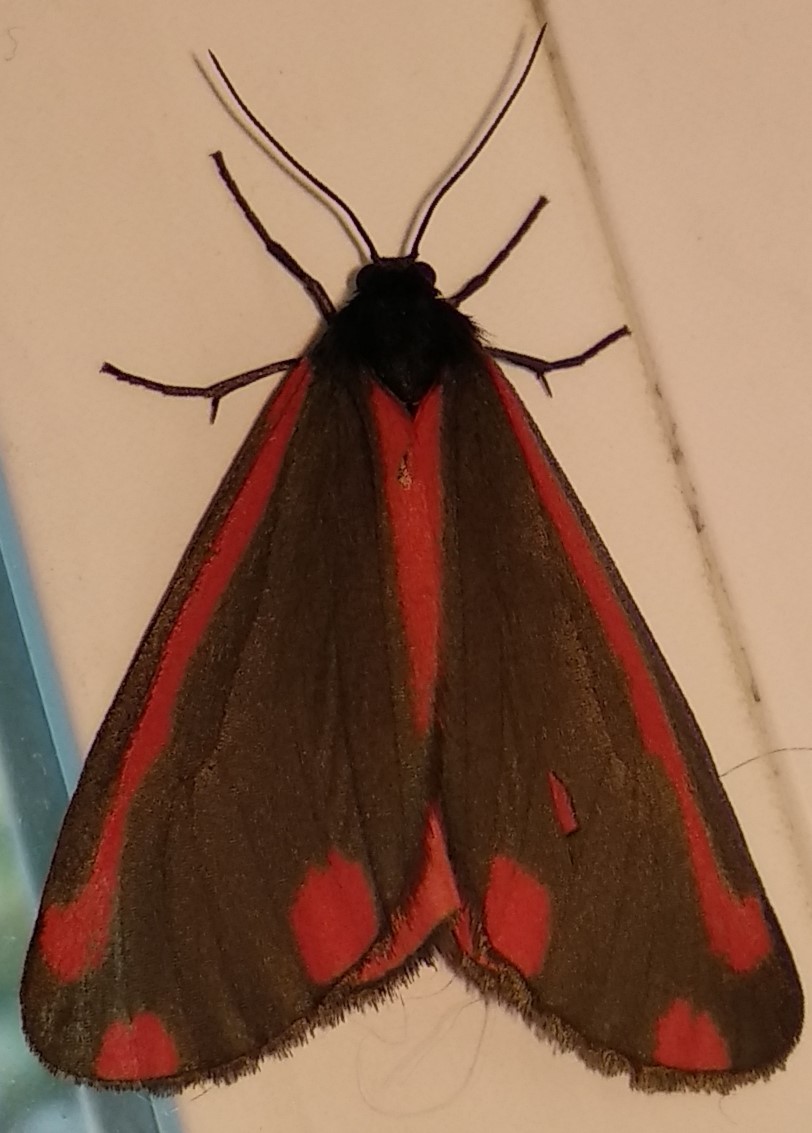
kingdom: Animalia
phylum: Arthropoda
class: Insecta
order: Lepidoptera
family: Erebidae
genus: Tyria
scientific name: Tyria jacobaeae
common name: Cinnabar
